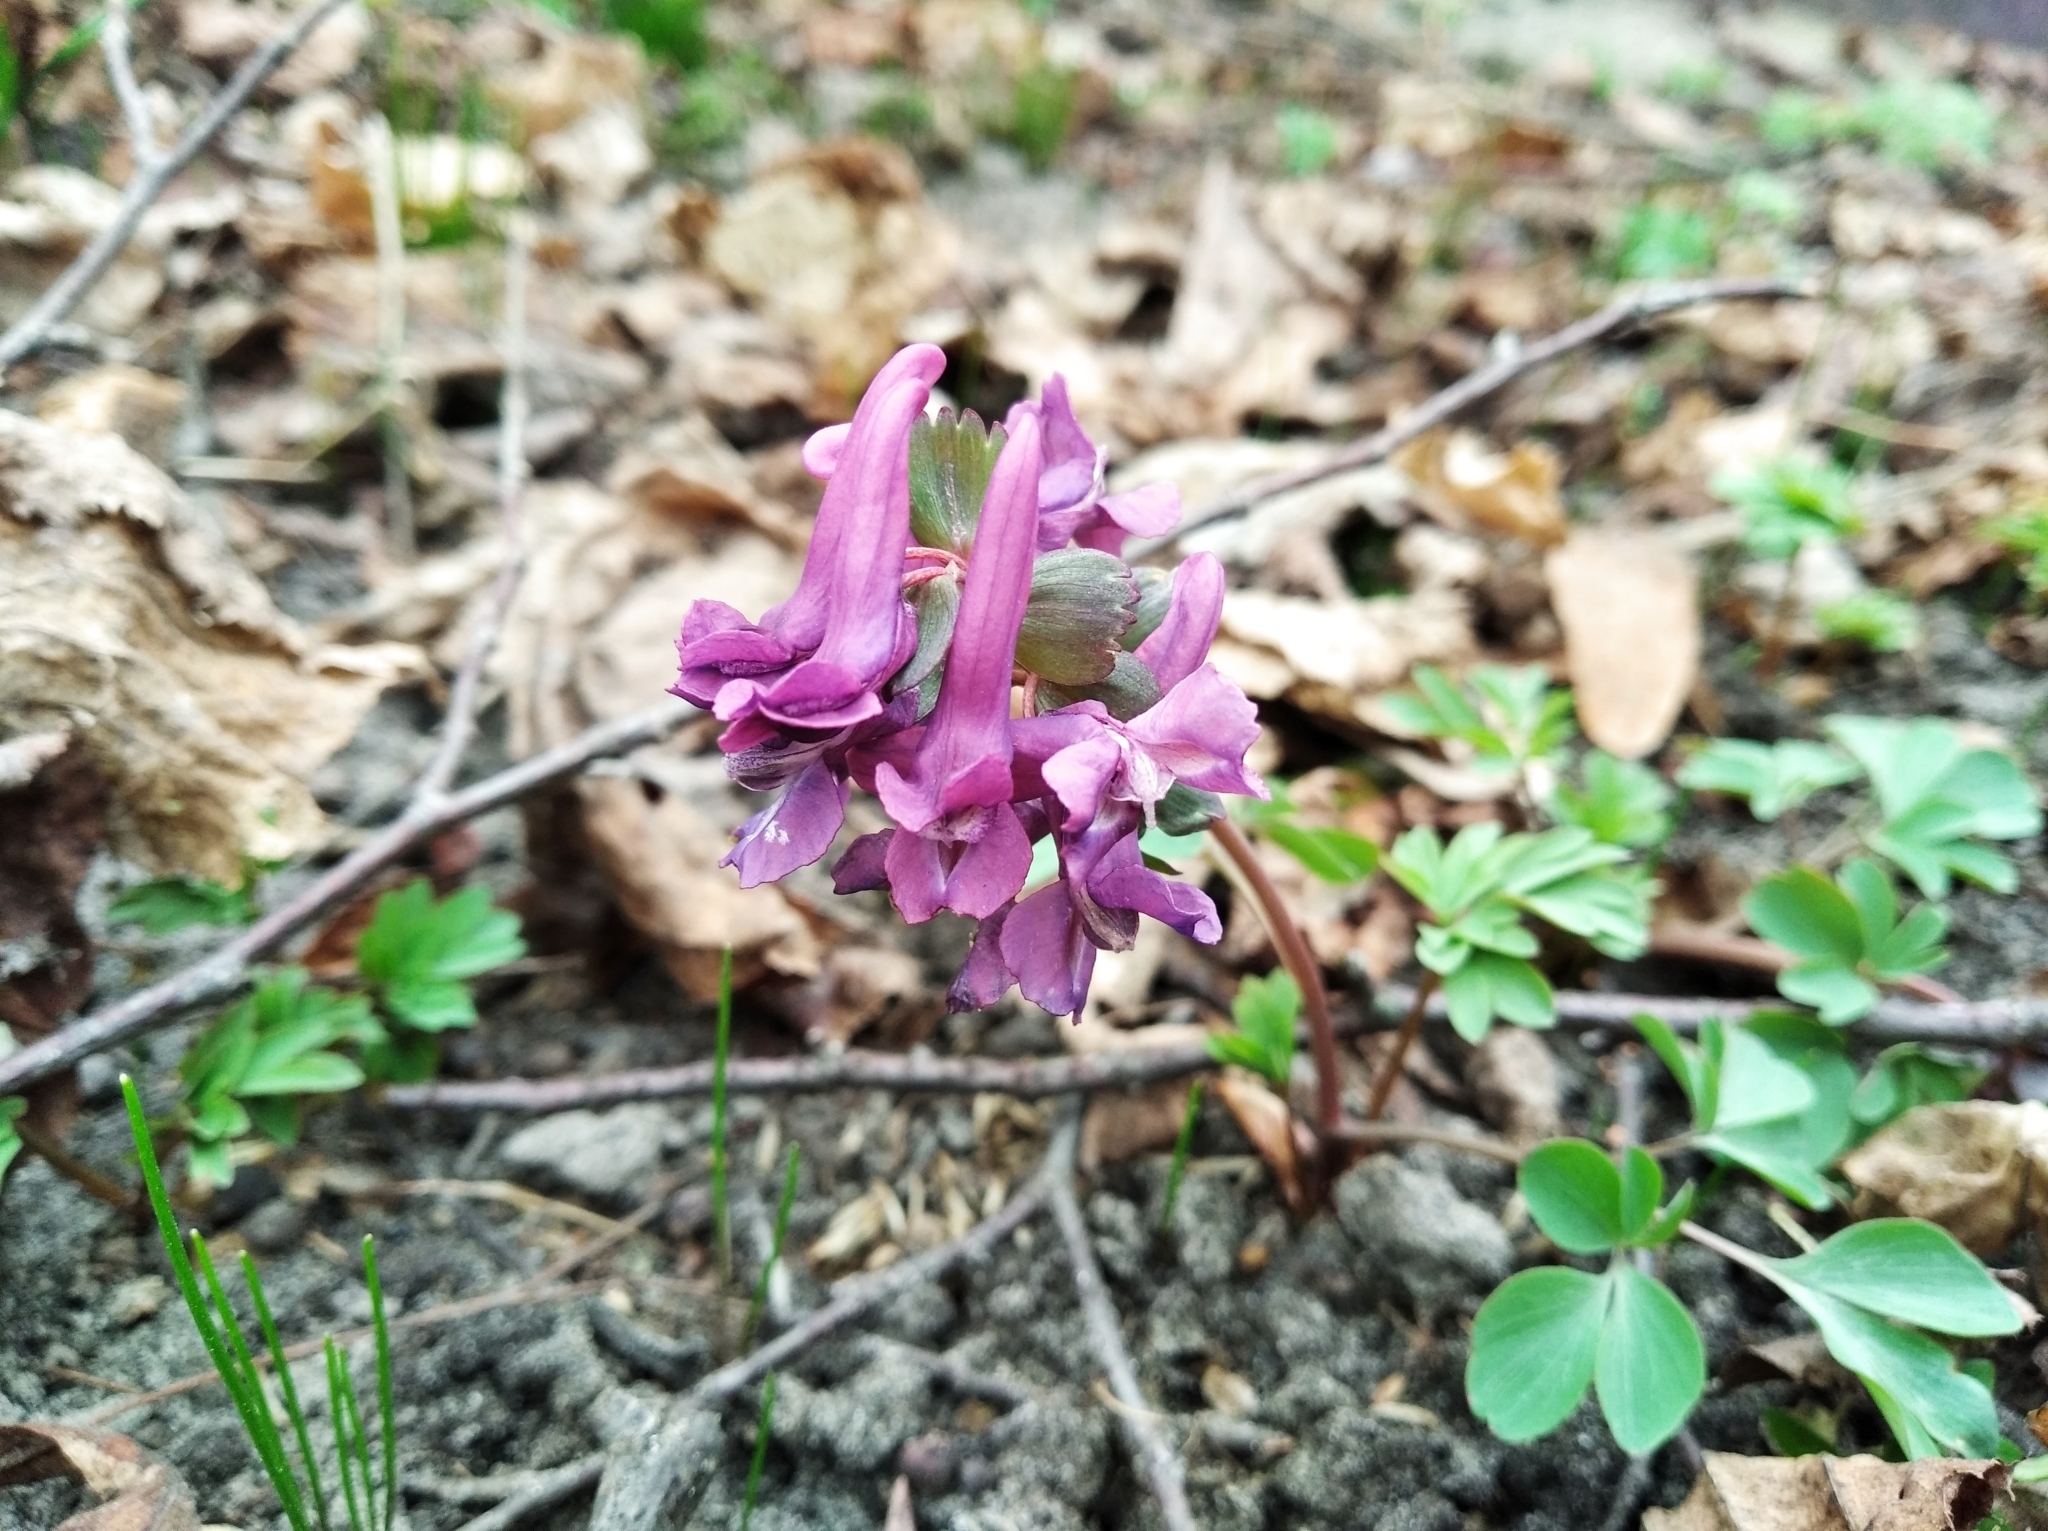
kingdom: Plantae
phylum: Tracheophyta
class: Magnoliopsida
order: Ranunculales
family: Papaveraceae
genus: Corydalis
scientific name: Corydalis solida
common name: Bird-in-a-bush
